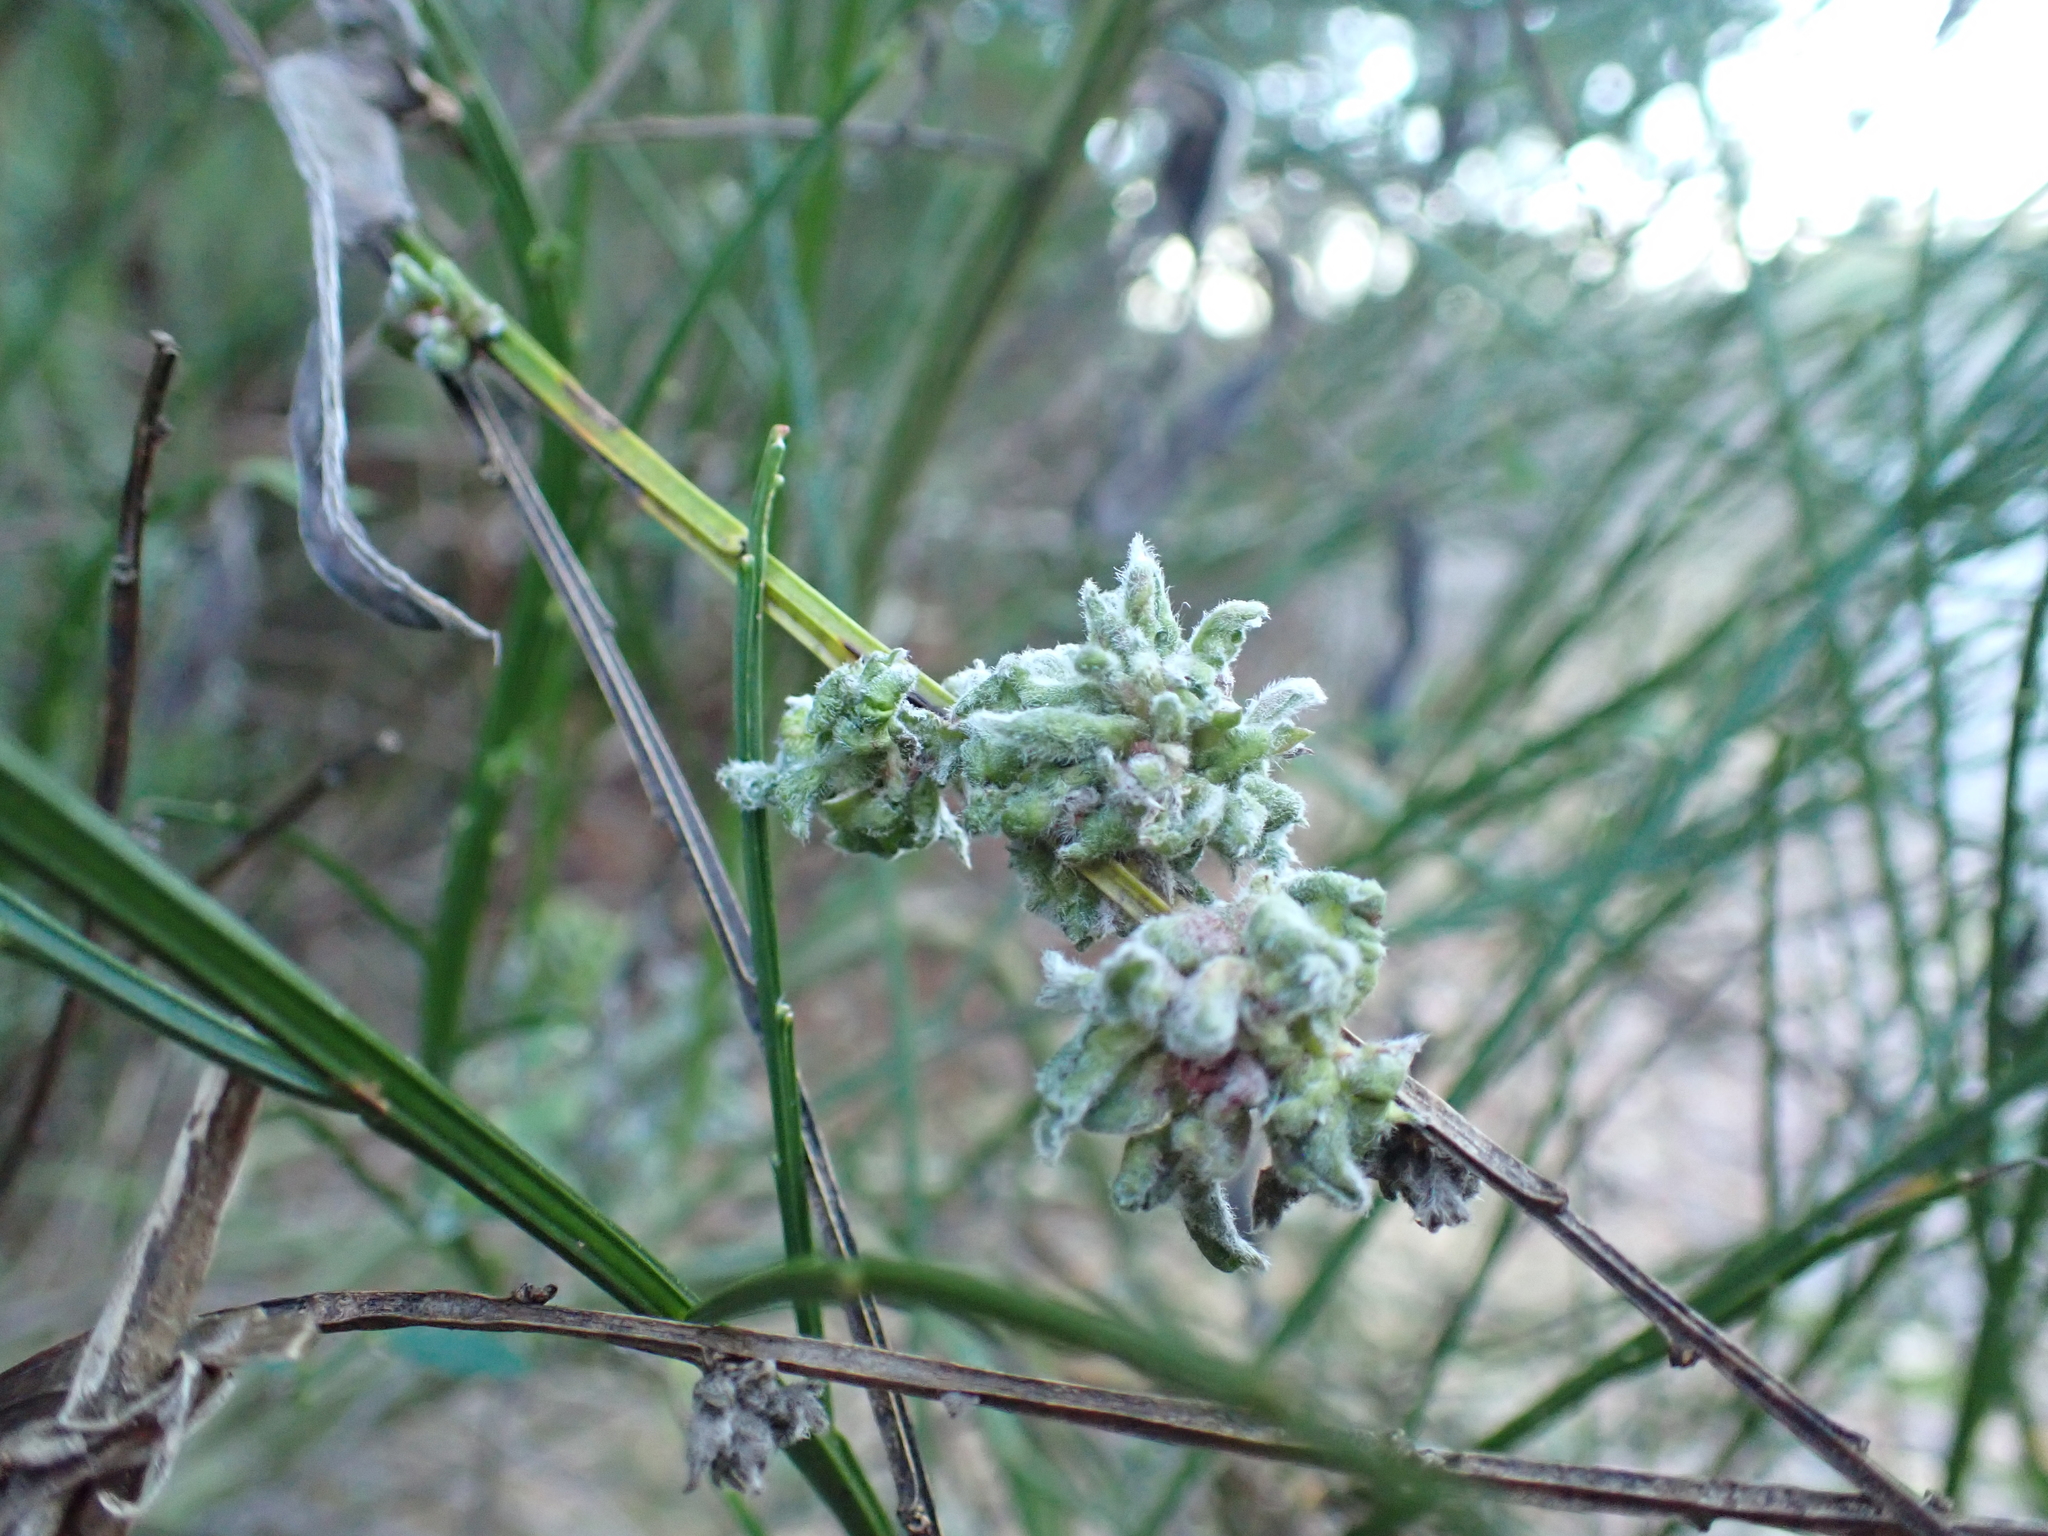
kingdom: Animalia
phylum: Arthropoda
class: Arachnida
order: Trombidiformes
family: Eriophyidae
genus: Aceria
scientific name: Aceria genistae
